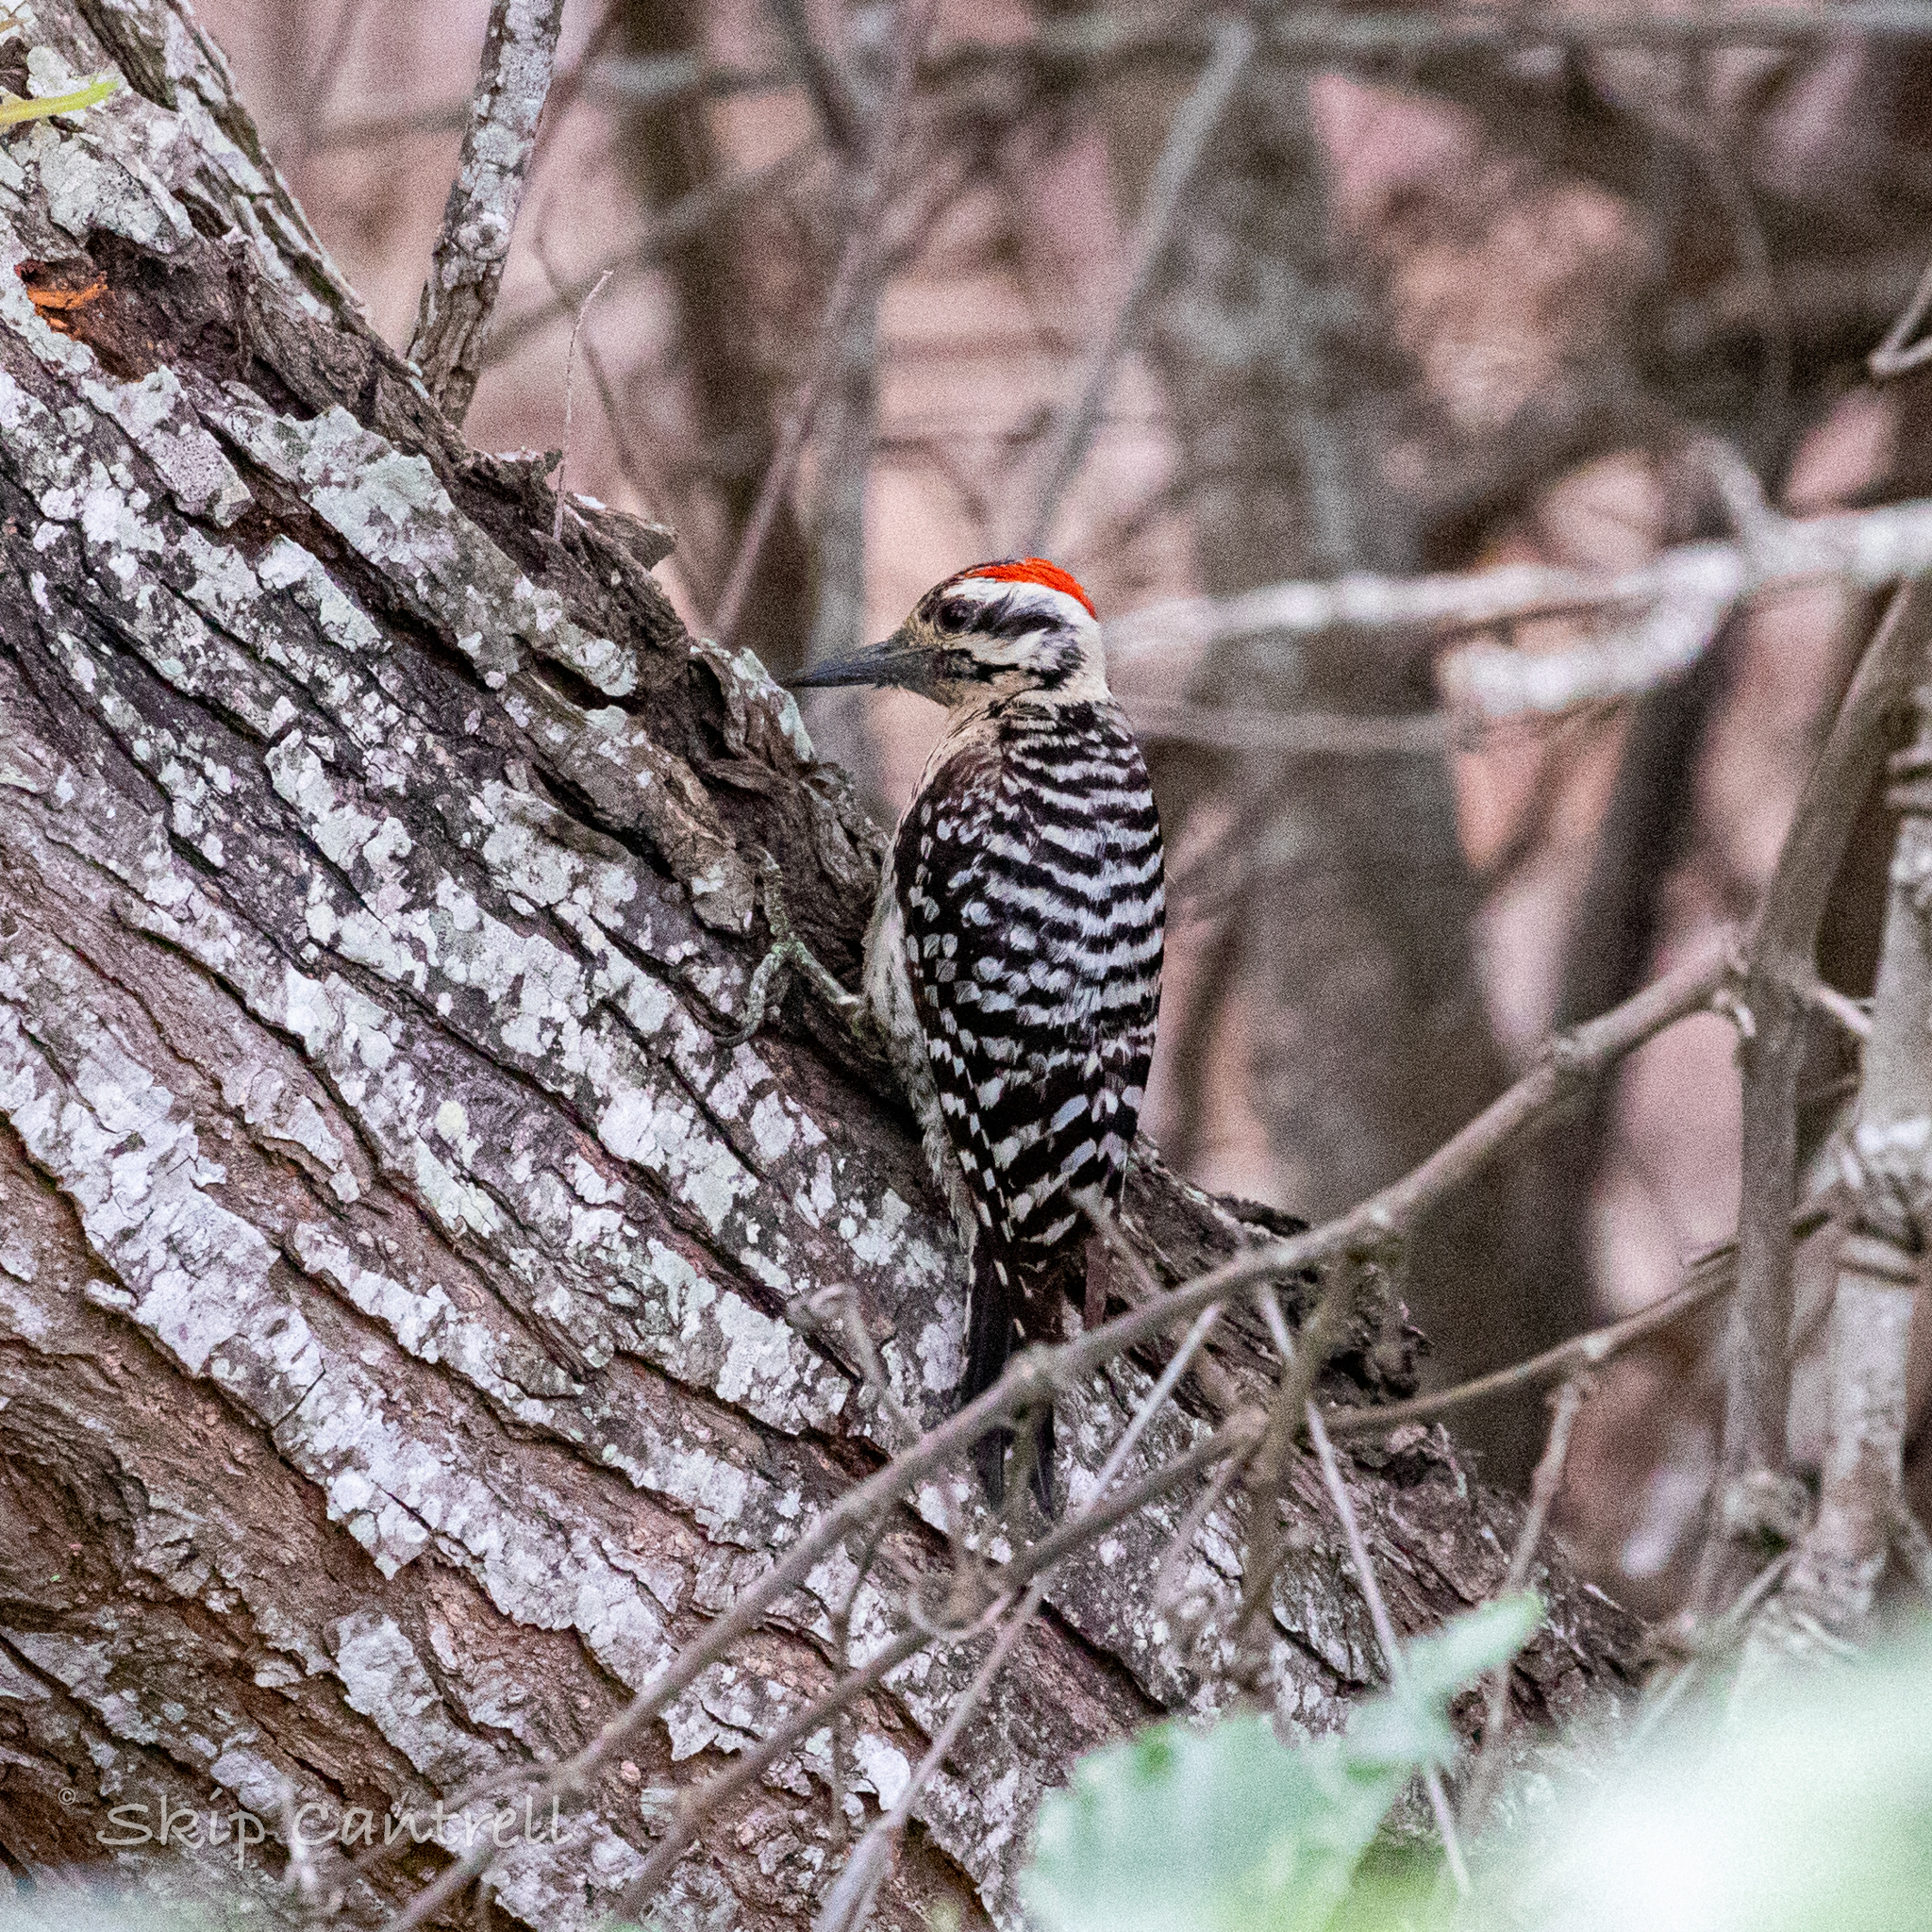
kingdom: Animalia
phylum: Chordata
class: Aves
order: Piciformes
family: Picidae
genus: Dryobates
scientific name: Dryobates scalaris
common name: Ladder-backed woodpecker
